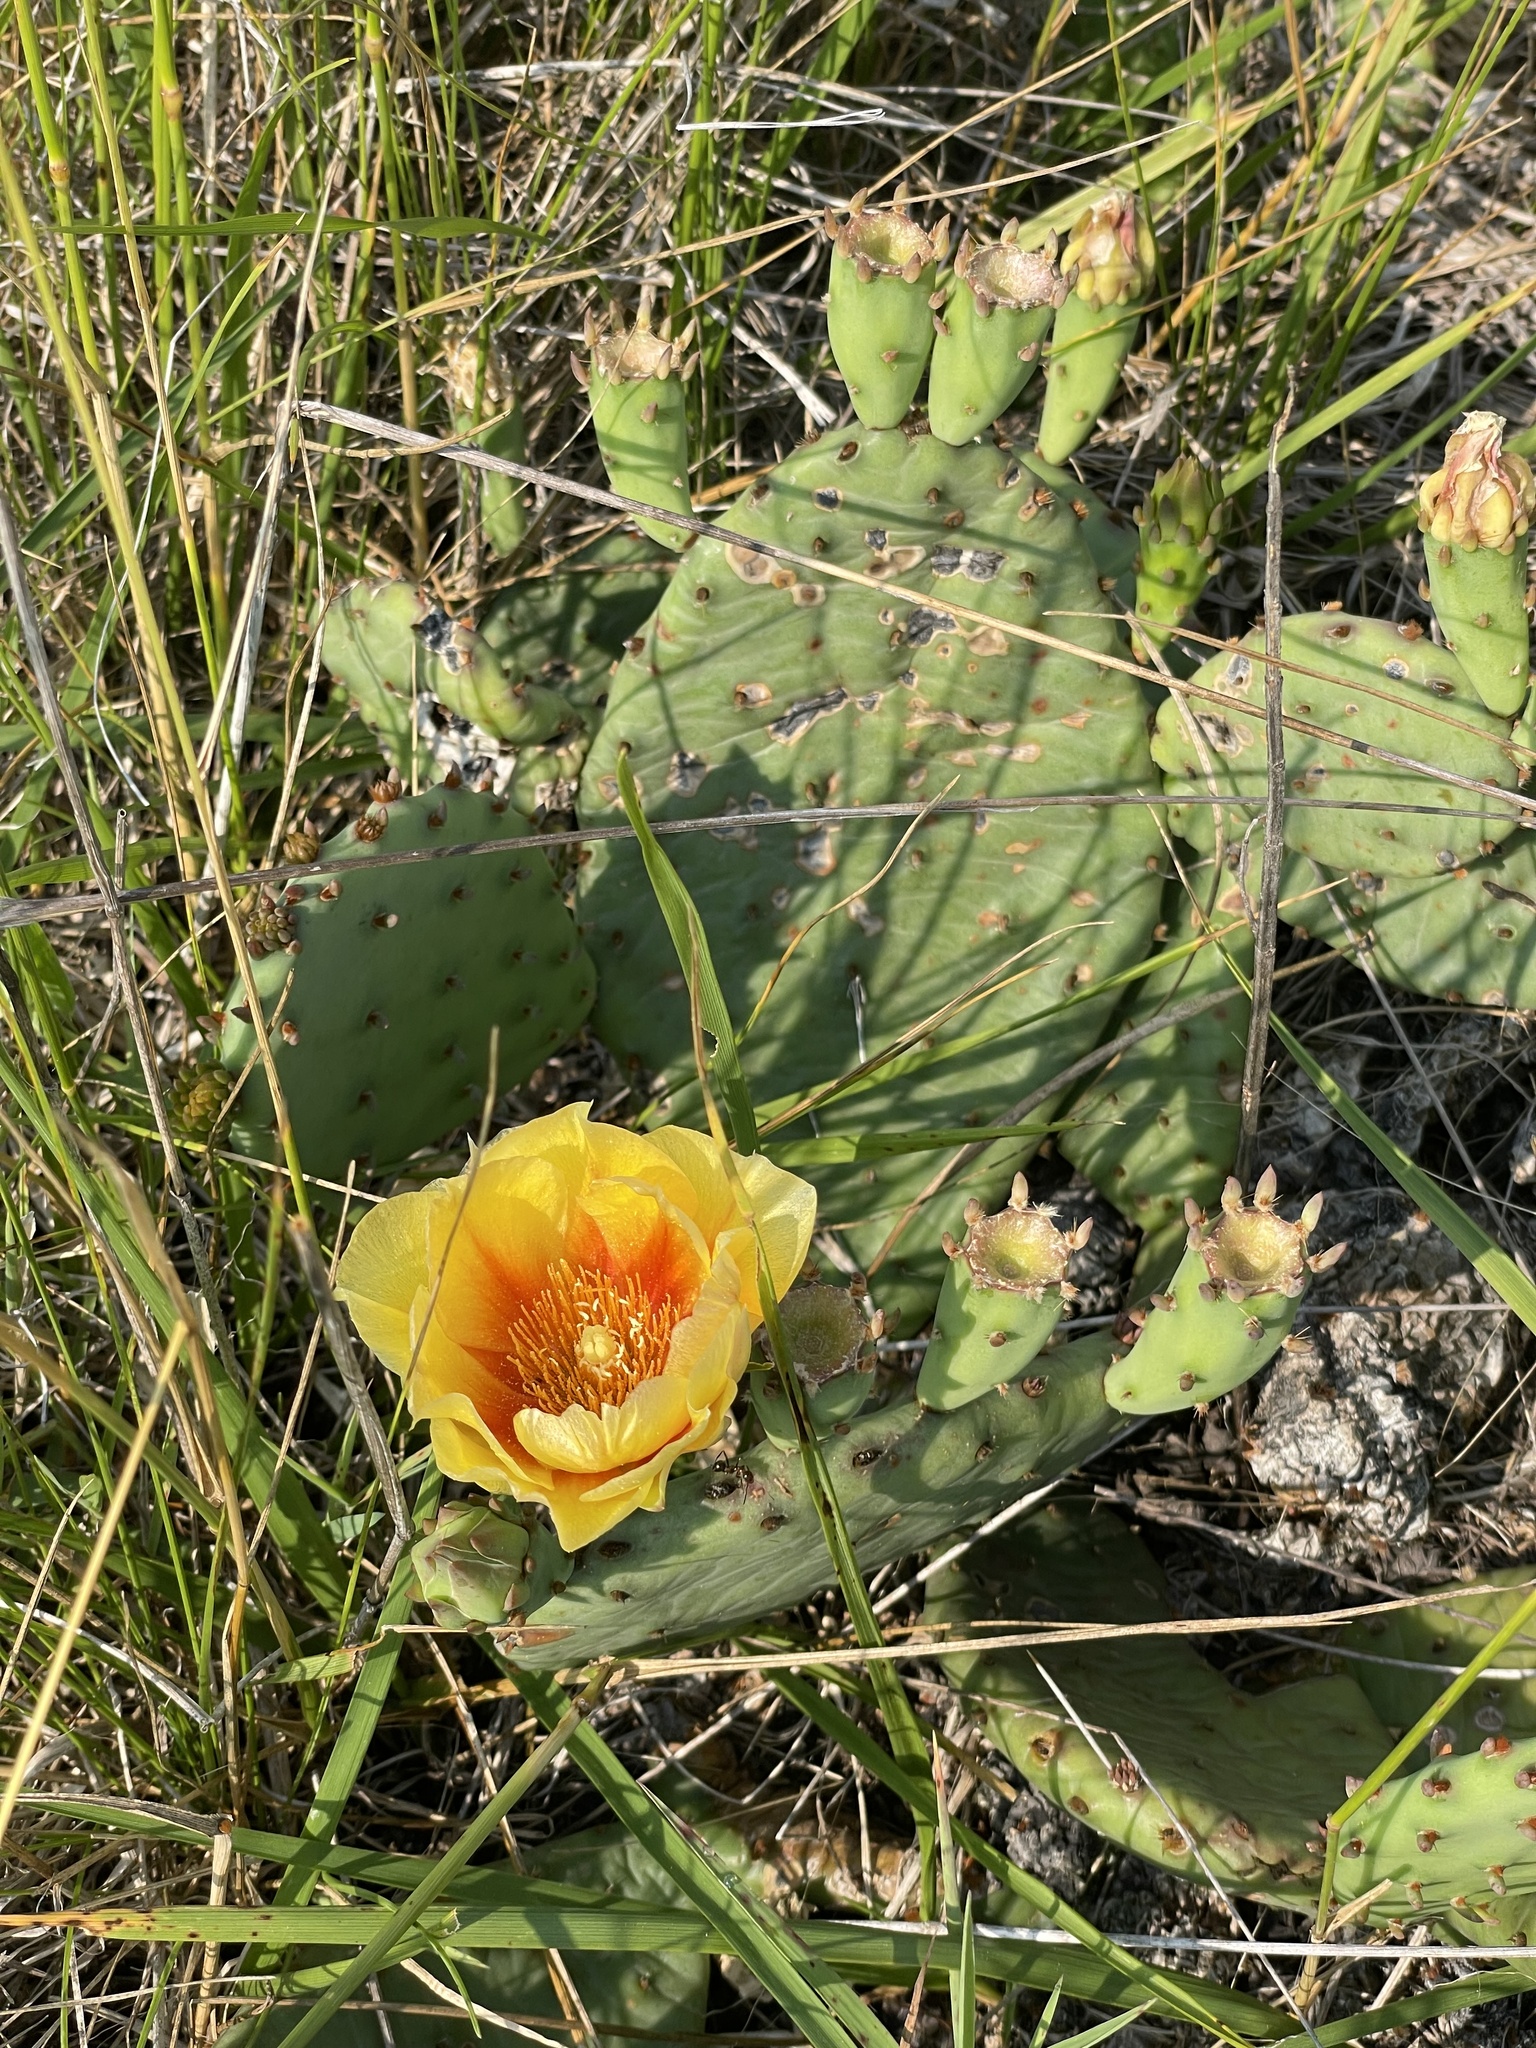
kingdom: Plantae
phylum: Tracheophyta
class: Magnoliopsida
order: Caryophyllales
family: Cactaceae
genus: Opuntia
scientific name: Opuntia macrorhiza
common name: Grassland pricklypear
